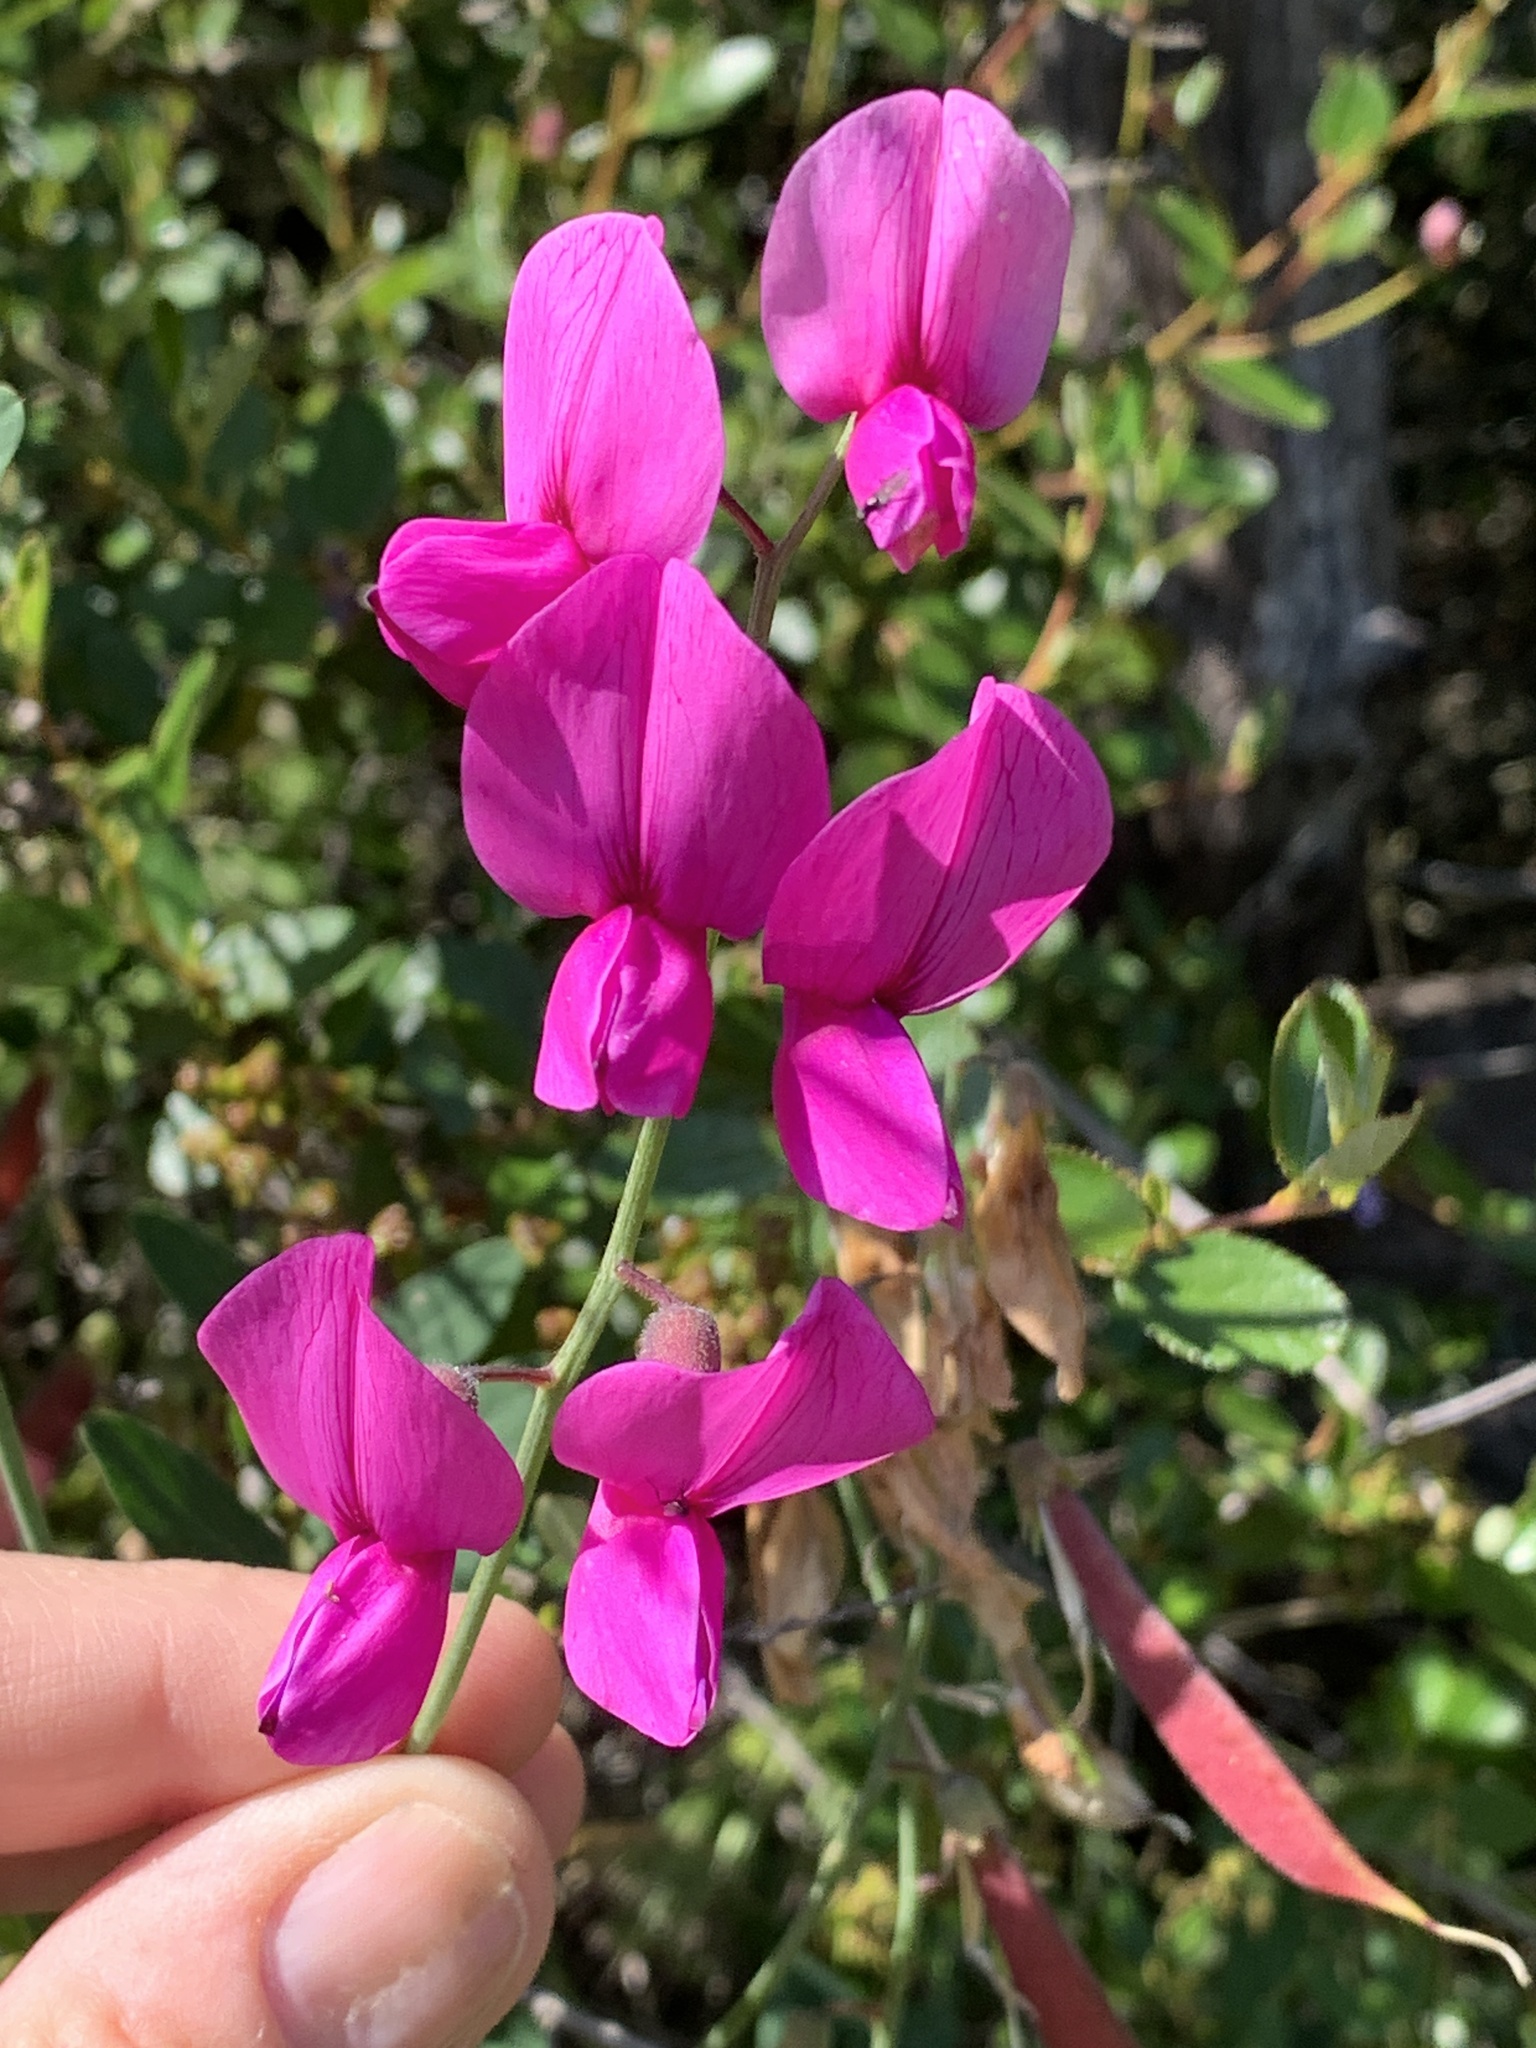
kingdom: Plantae
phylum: Tracheophyta
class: Magnoliopsida
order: Fabales
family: Fabaceae
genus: Lathyrus
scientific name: Lathyrus vestitus
